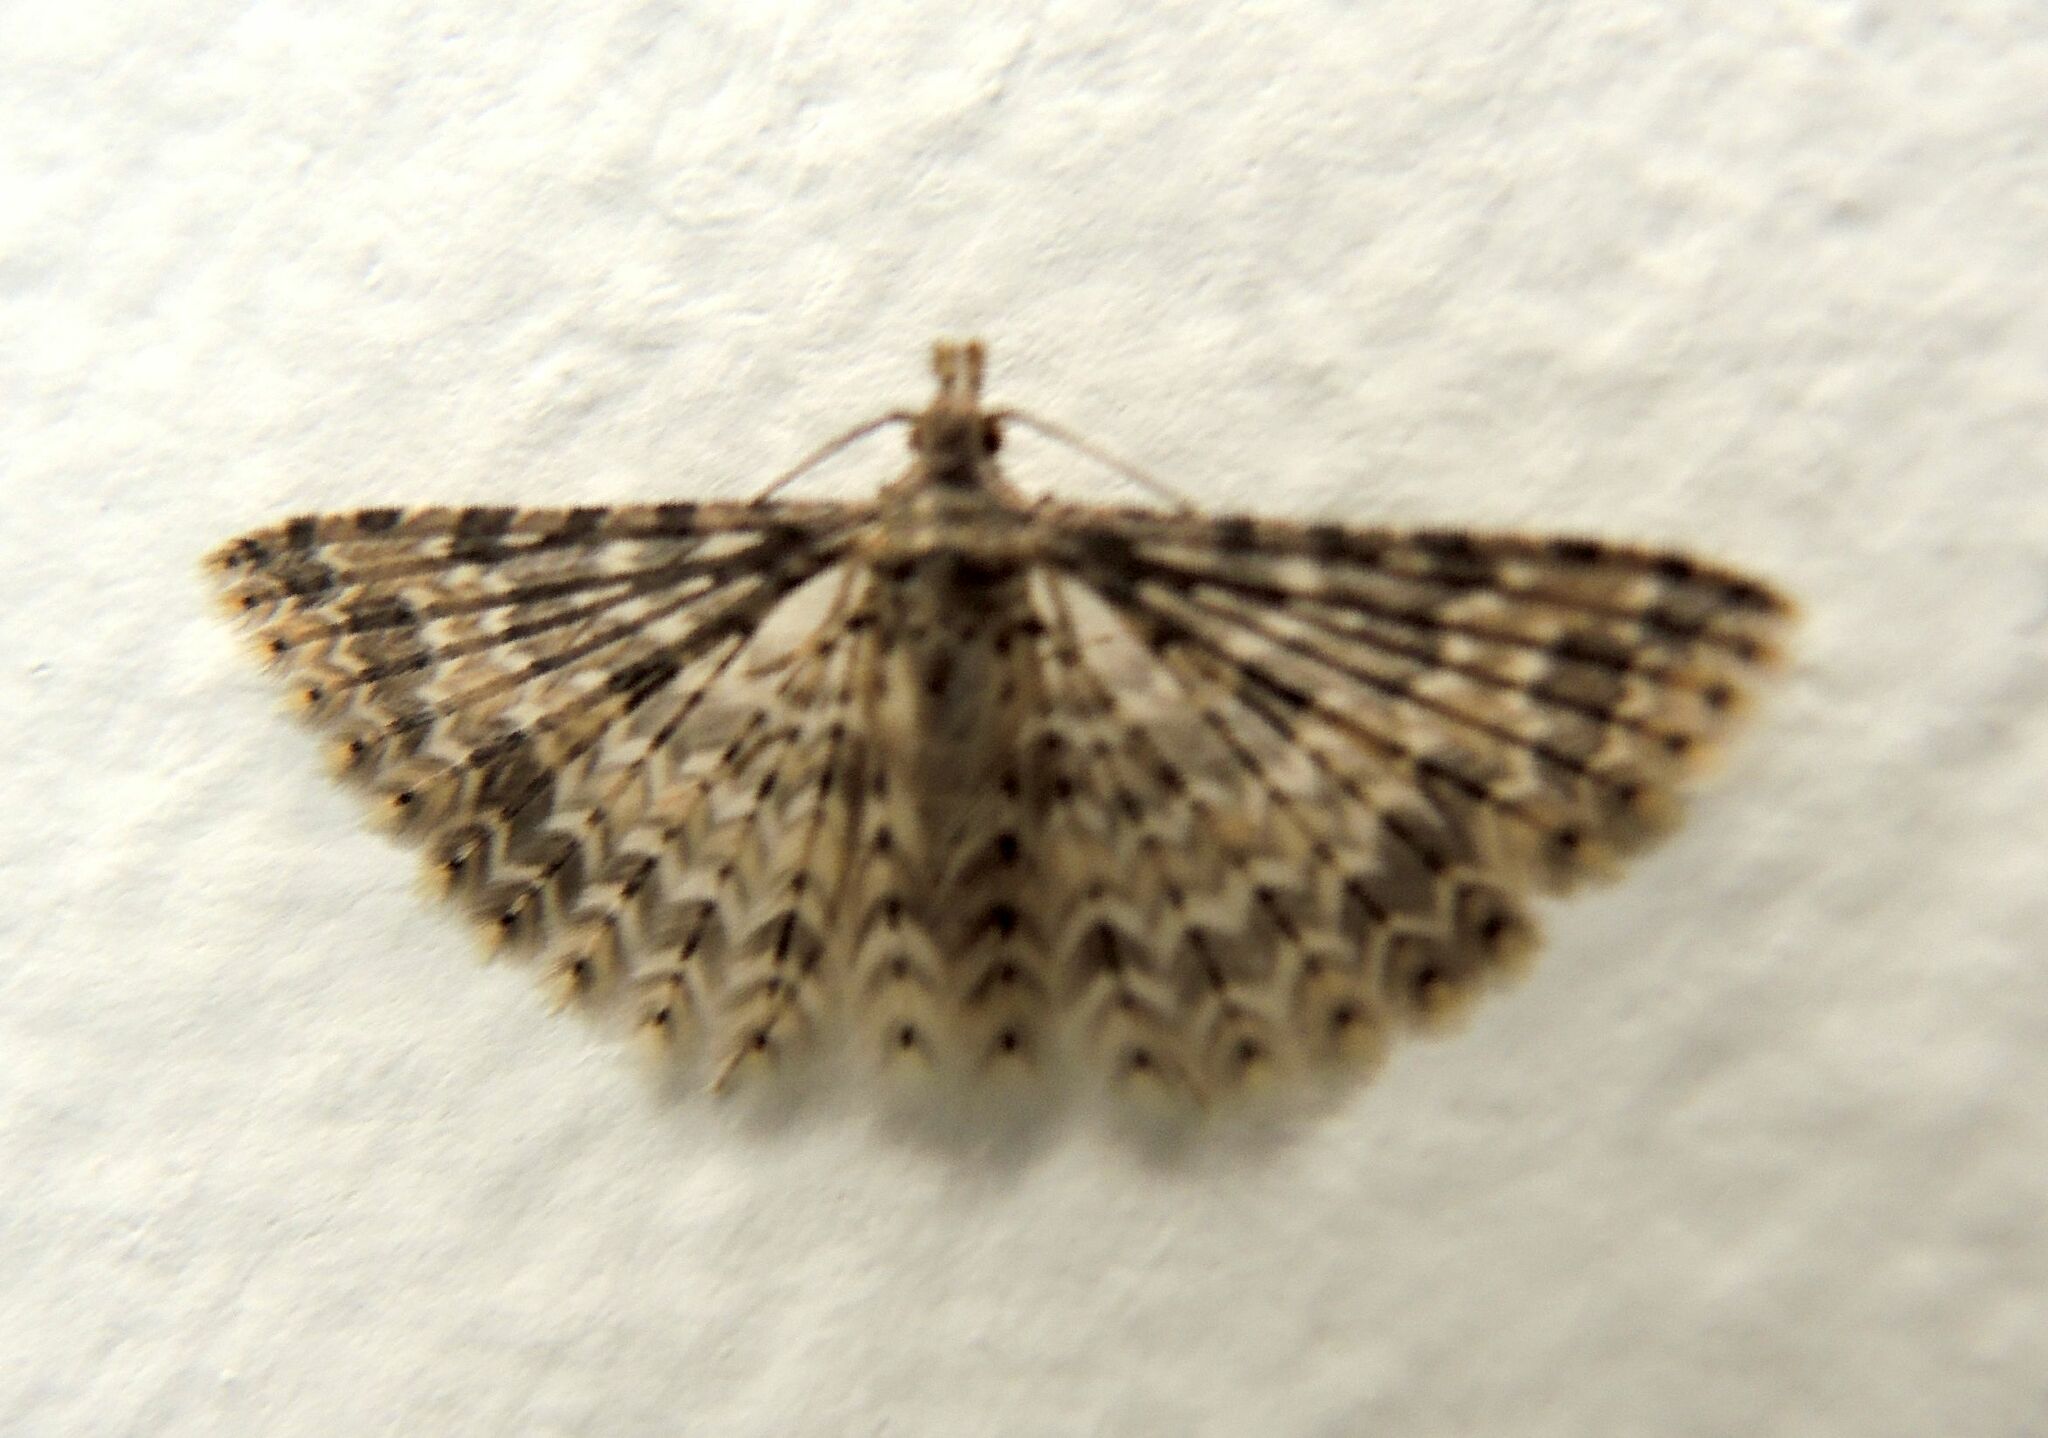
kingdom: Animalia
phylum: Arthropoda
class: Insecta
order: Lepidoptera
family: Alucitidae
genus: Alucita
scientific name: Alucita
